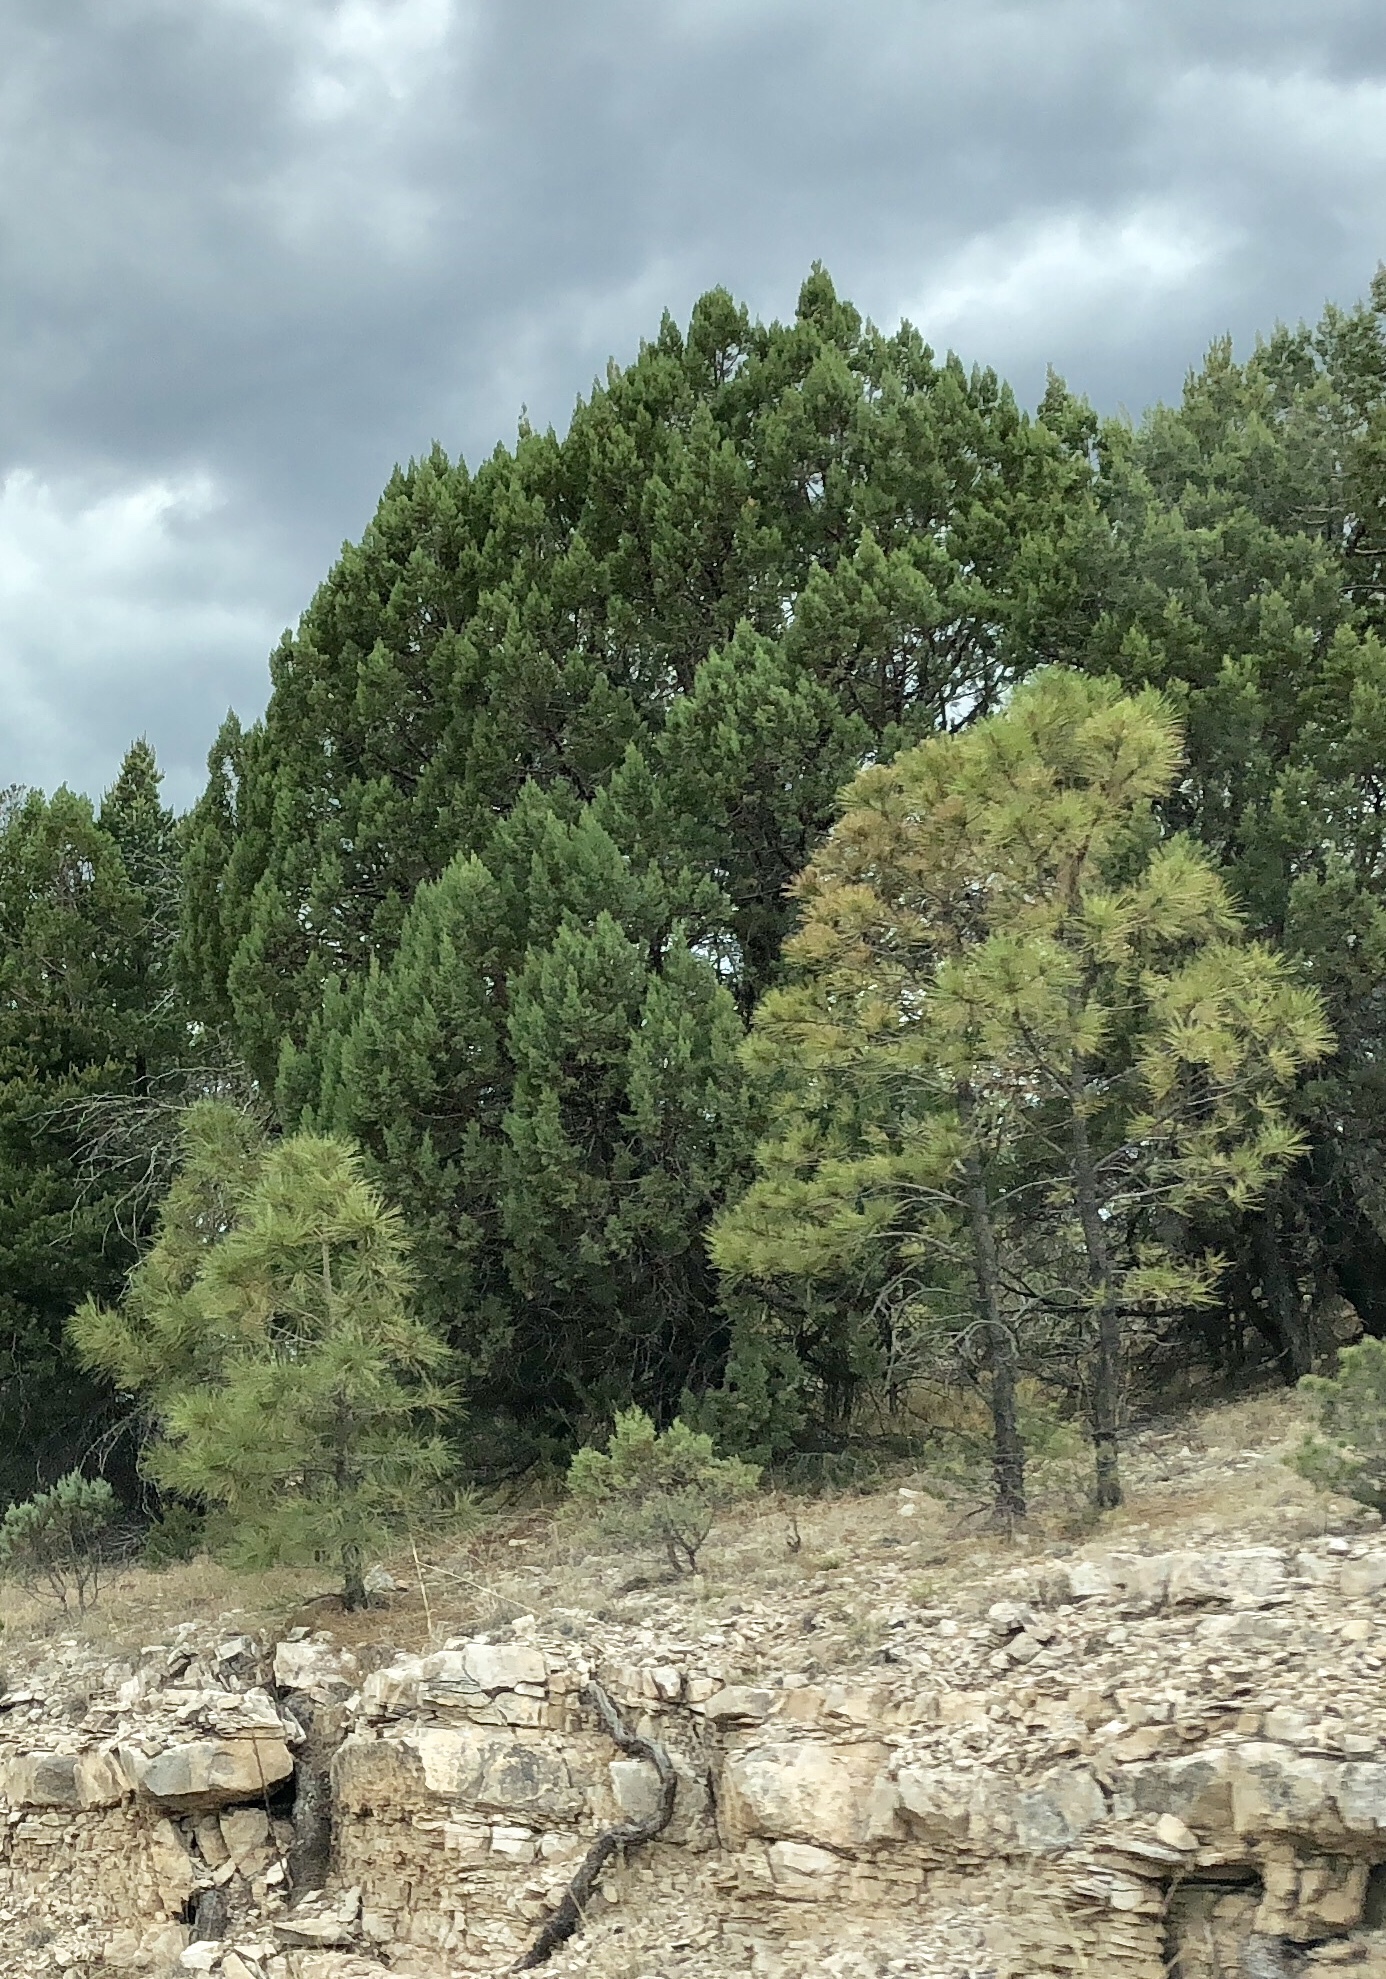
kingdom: Plantae
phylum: Tracheophyta
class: Pinopsida
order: Pinales
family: Pinaceae
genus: Pinus
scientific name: Pinus ponderosa
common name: Western yellow-pine
